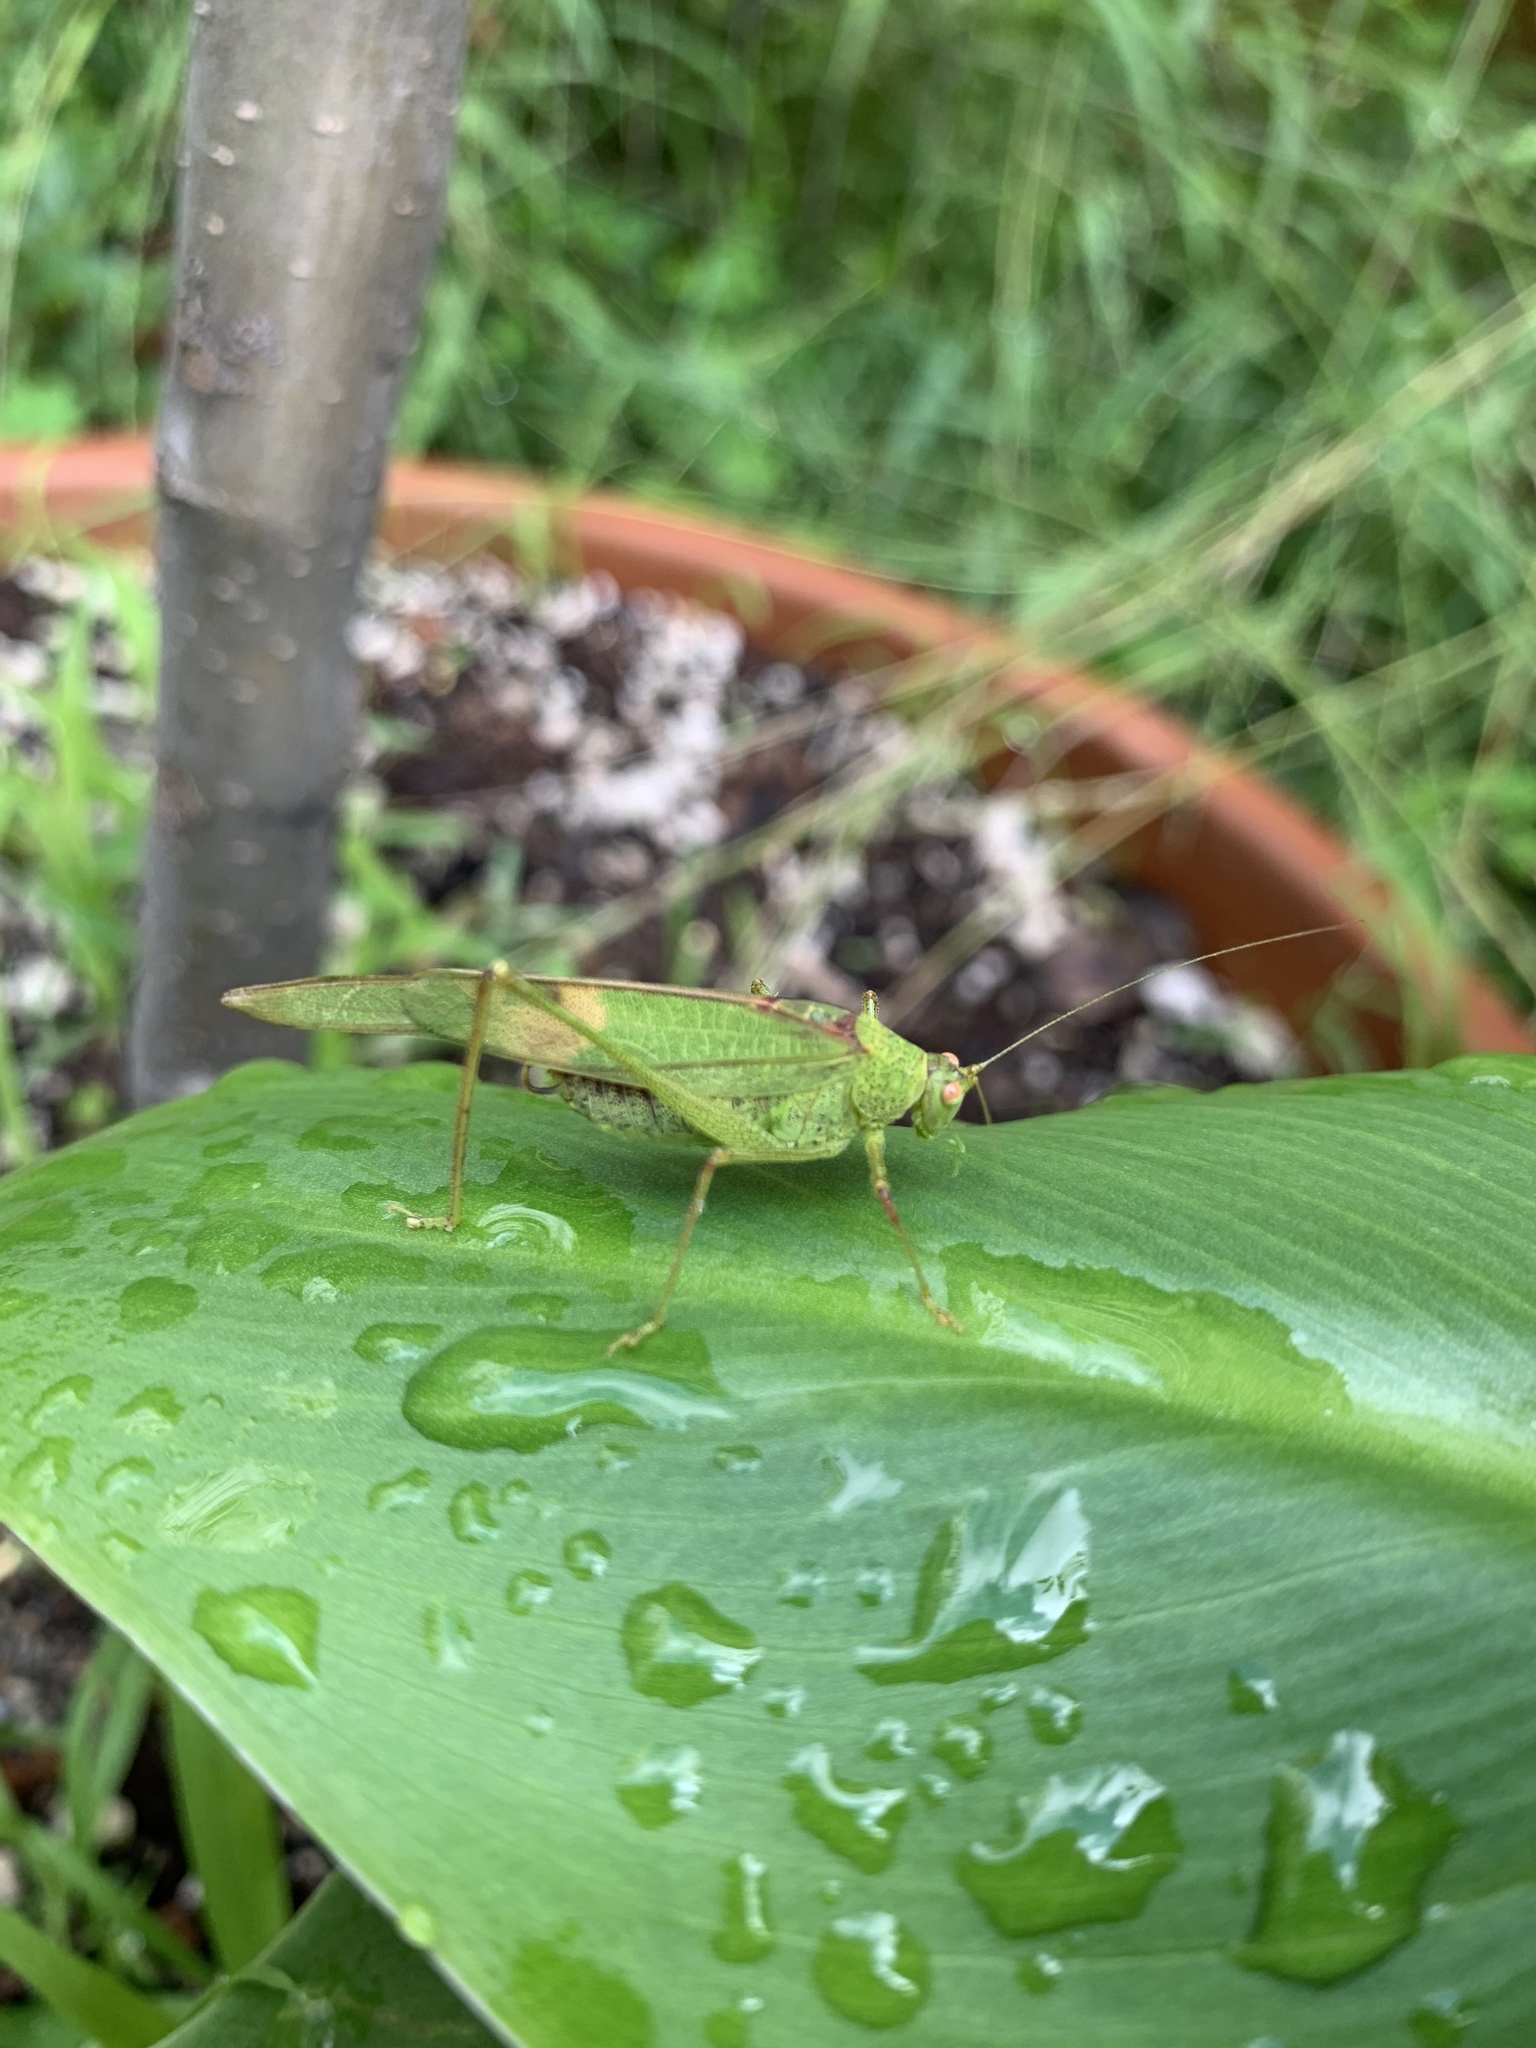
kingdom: Animalia
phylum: Arthropoda
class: Insecta
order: Orthoptera
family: Tettigoniidae
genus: Phaneroptera
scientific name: Phaneroptera nana
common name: Southern sickle bush-cricket
